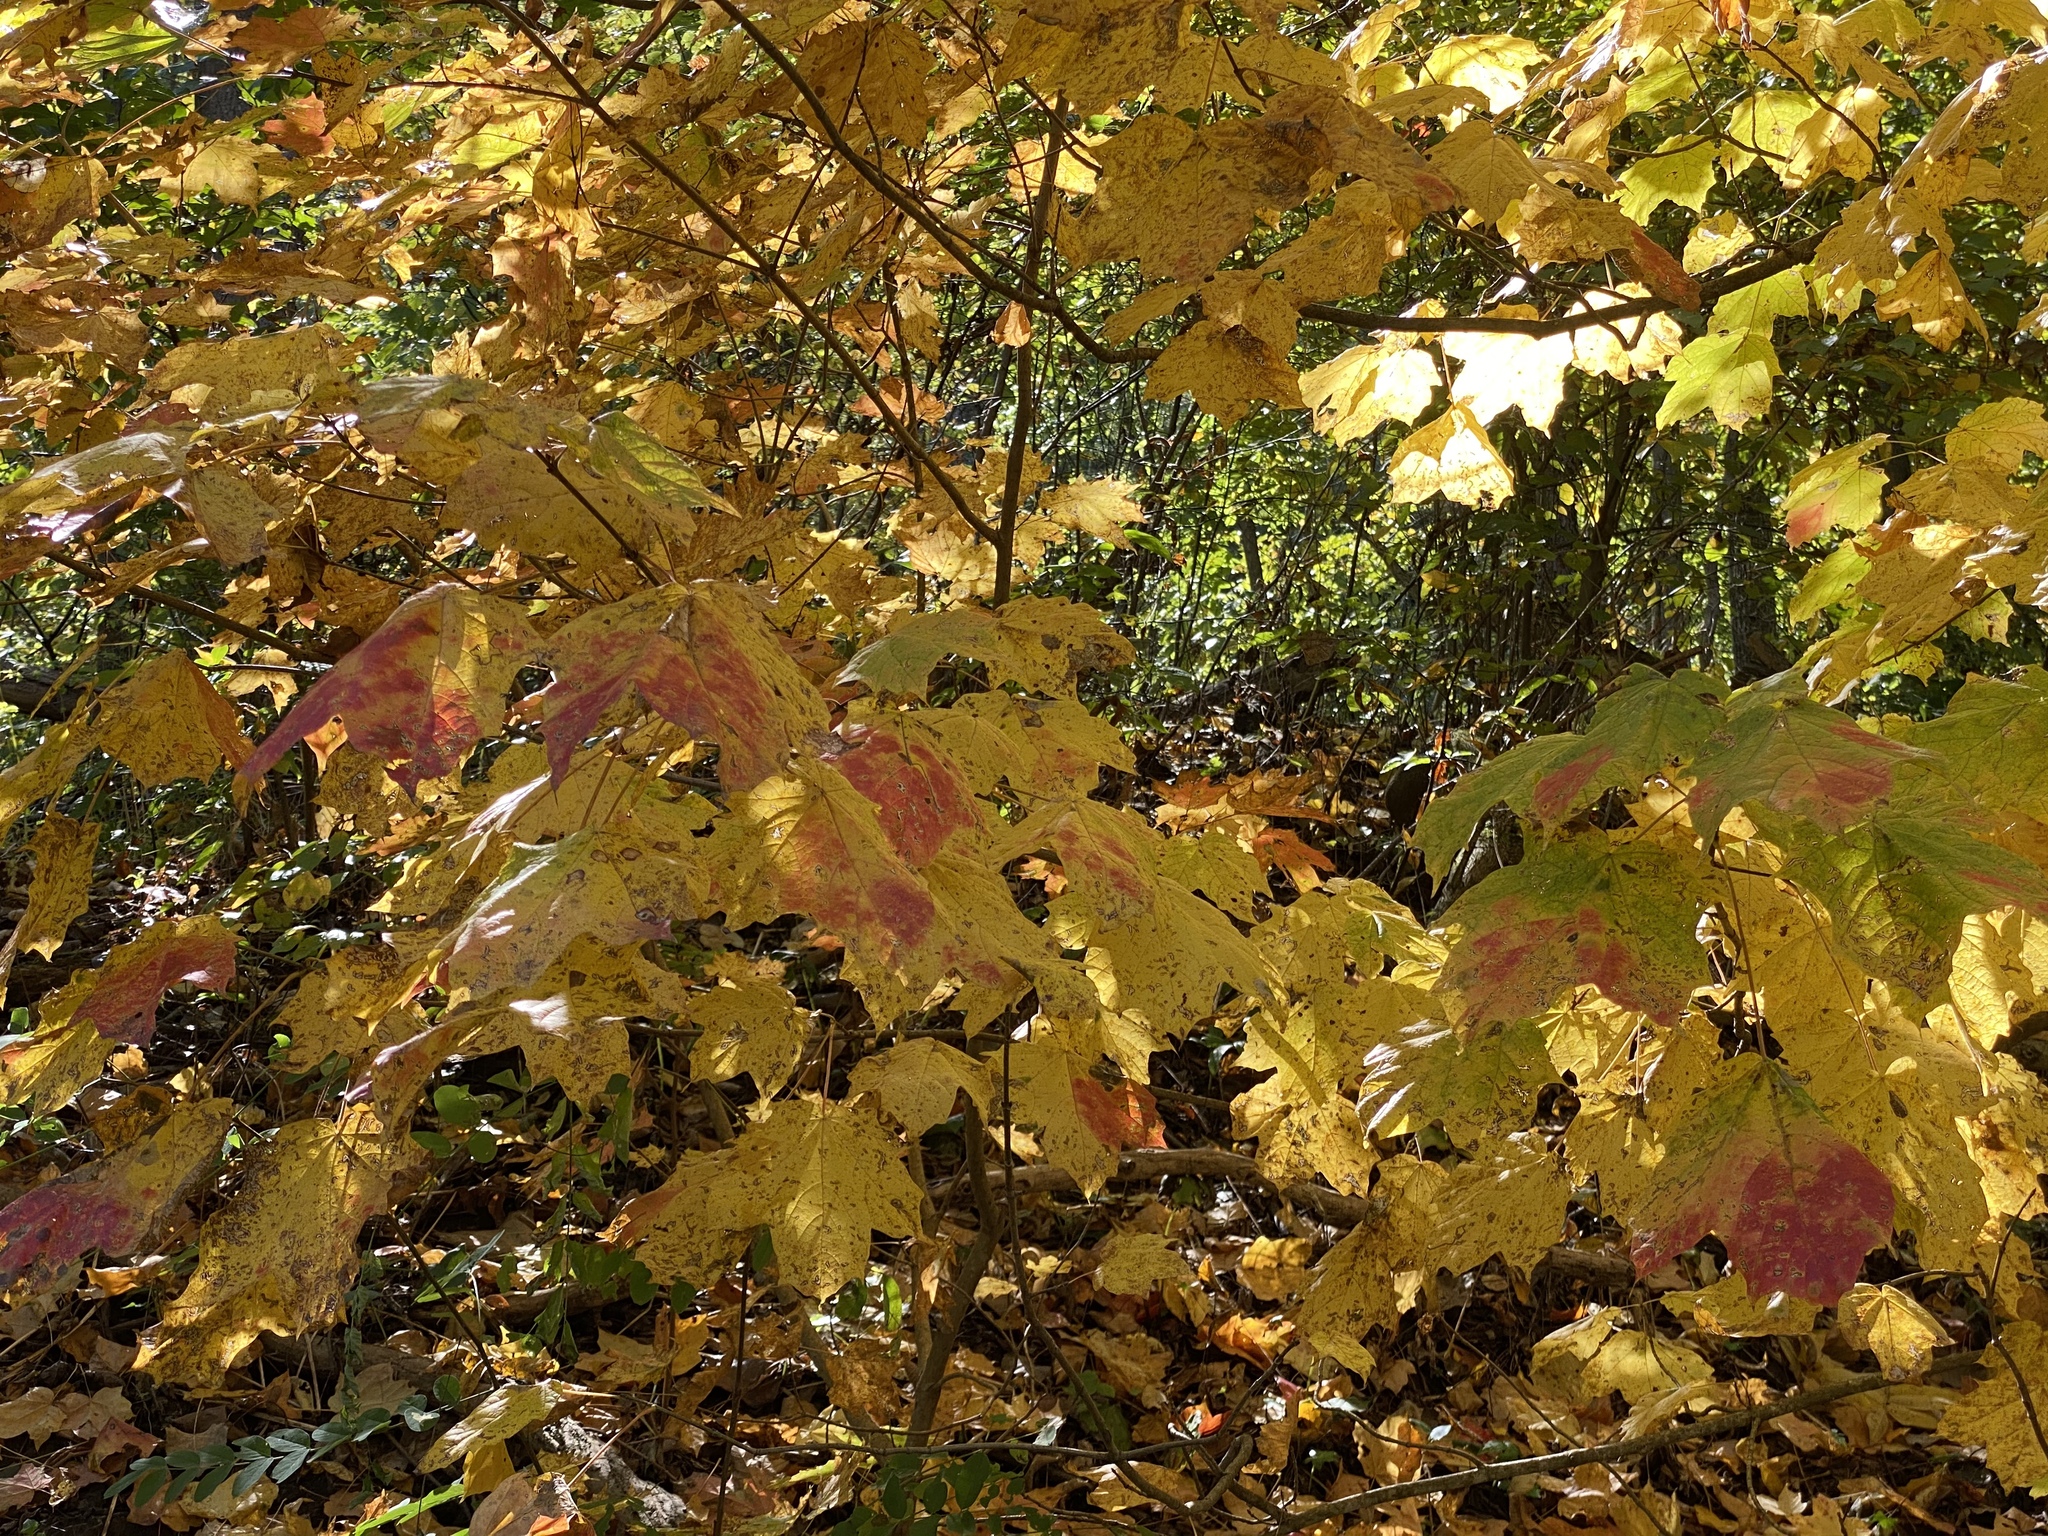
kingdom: Plantae
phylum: Tracheophyta
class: Magnoliopsida
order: Sapindales
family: Sapindaceae
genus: Acer
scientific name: Acer nigrum
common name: Black maple
